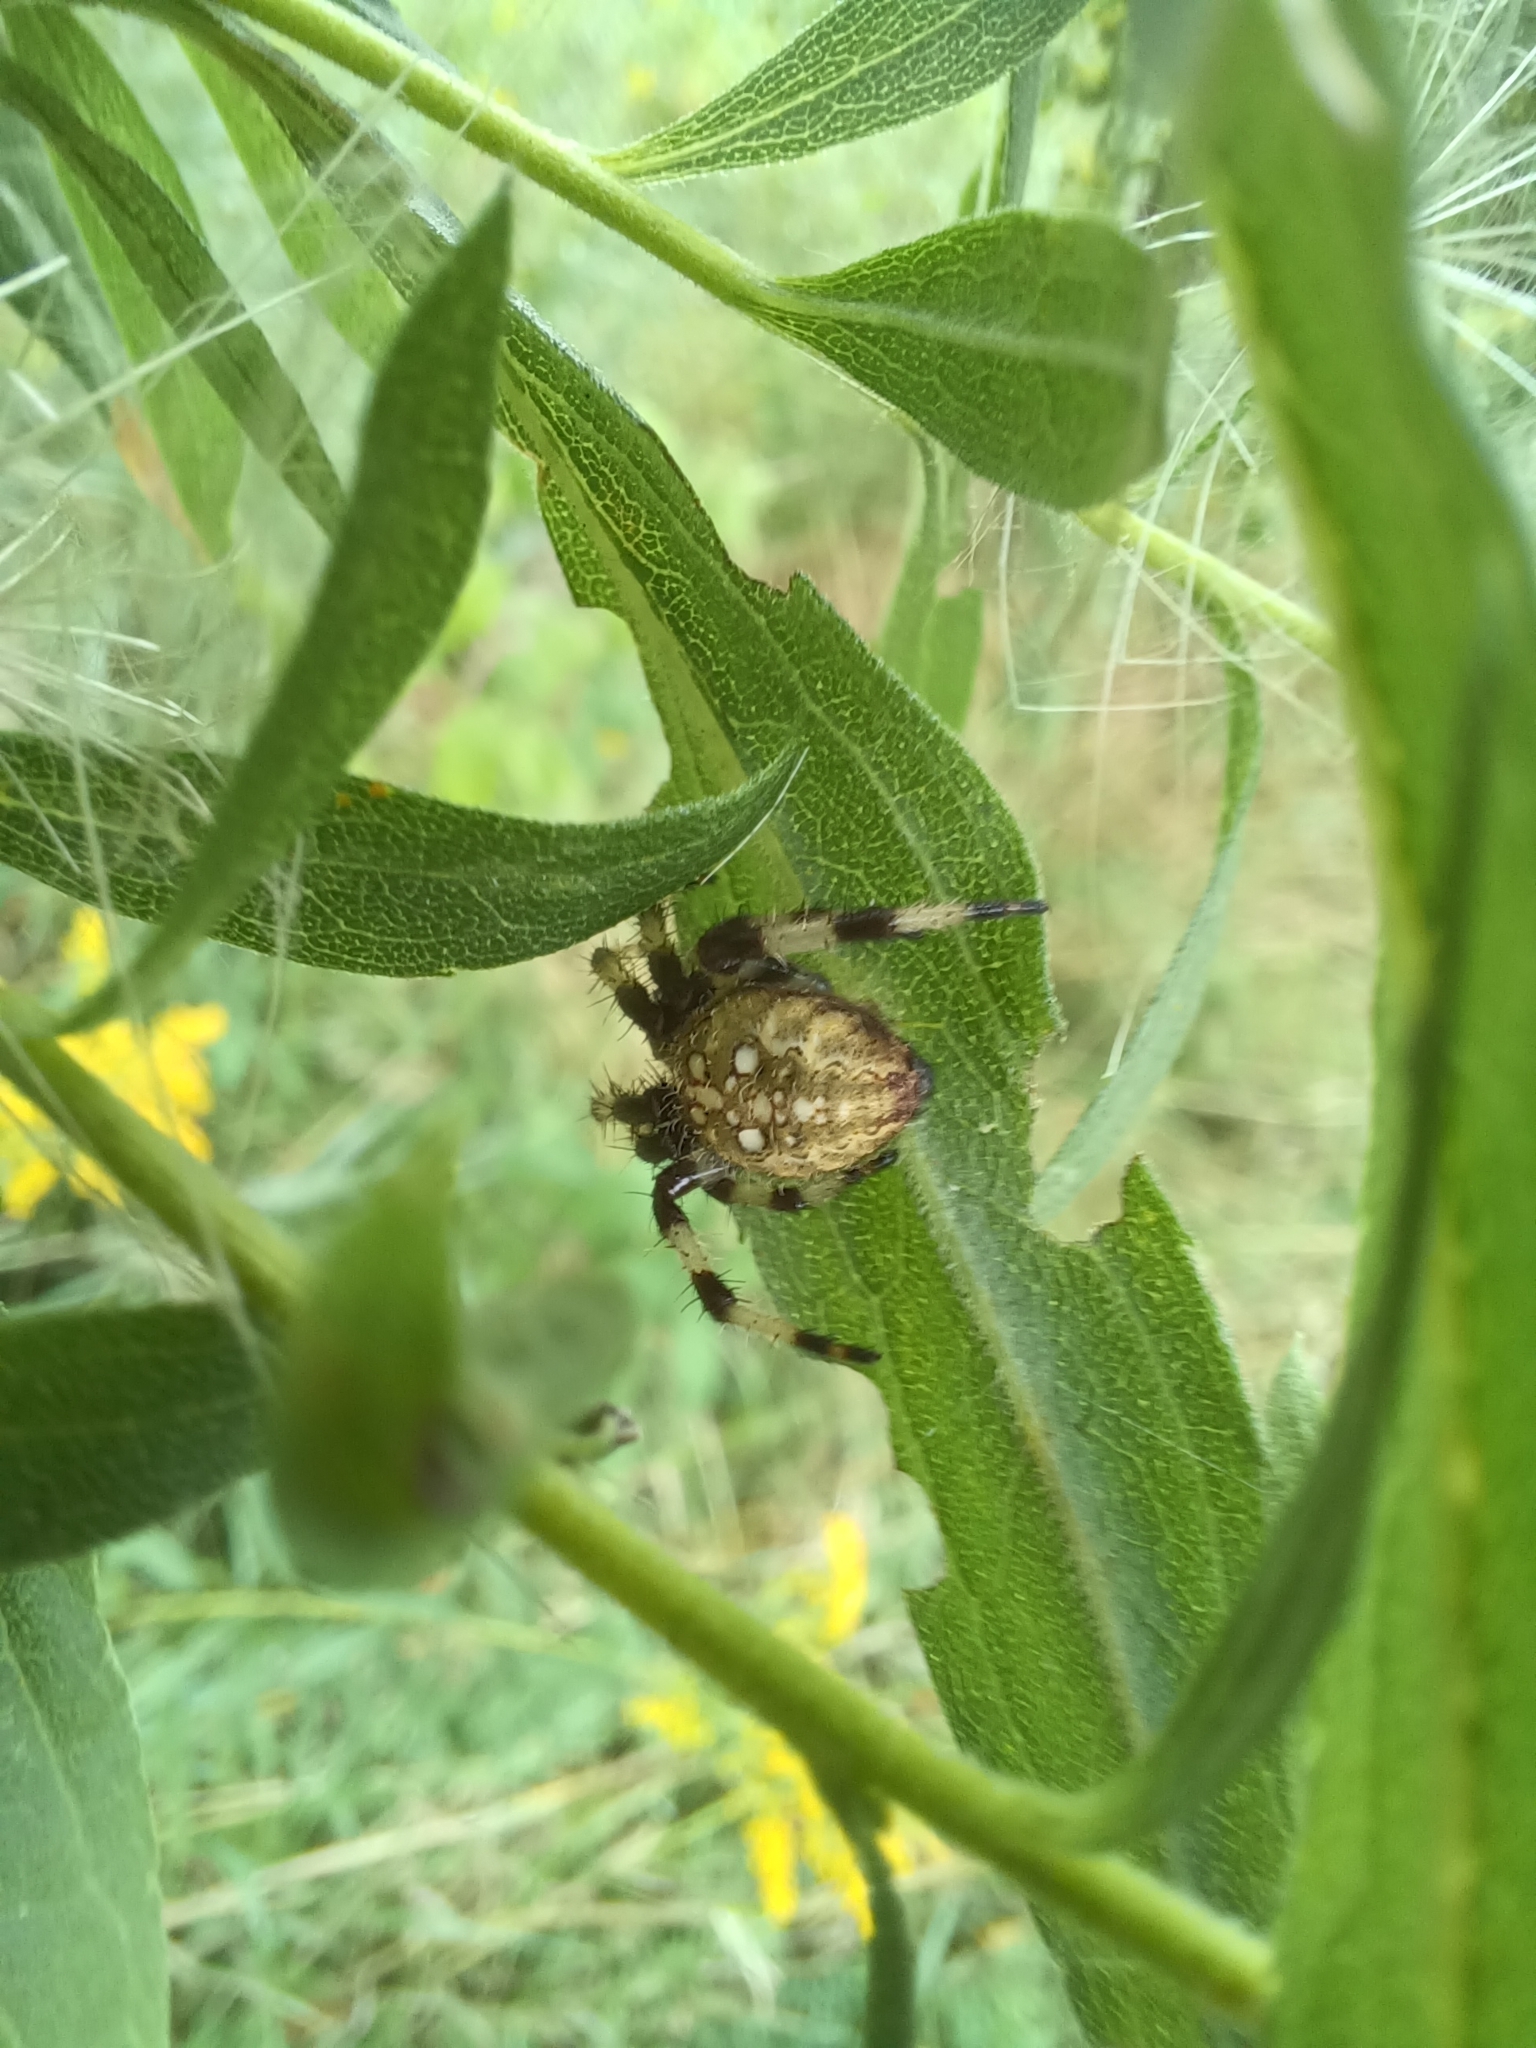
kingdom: Animalia
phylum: Arthropoda
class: Arachnida
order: Araneae
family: Araneidae
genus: Araneus
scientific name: Araneus trifolium
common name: Shamrock orbweaver
